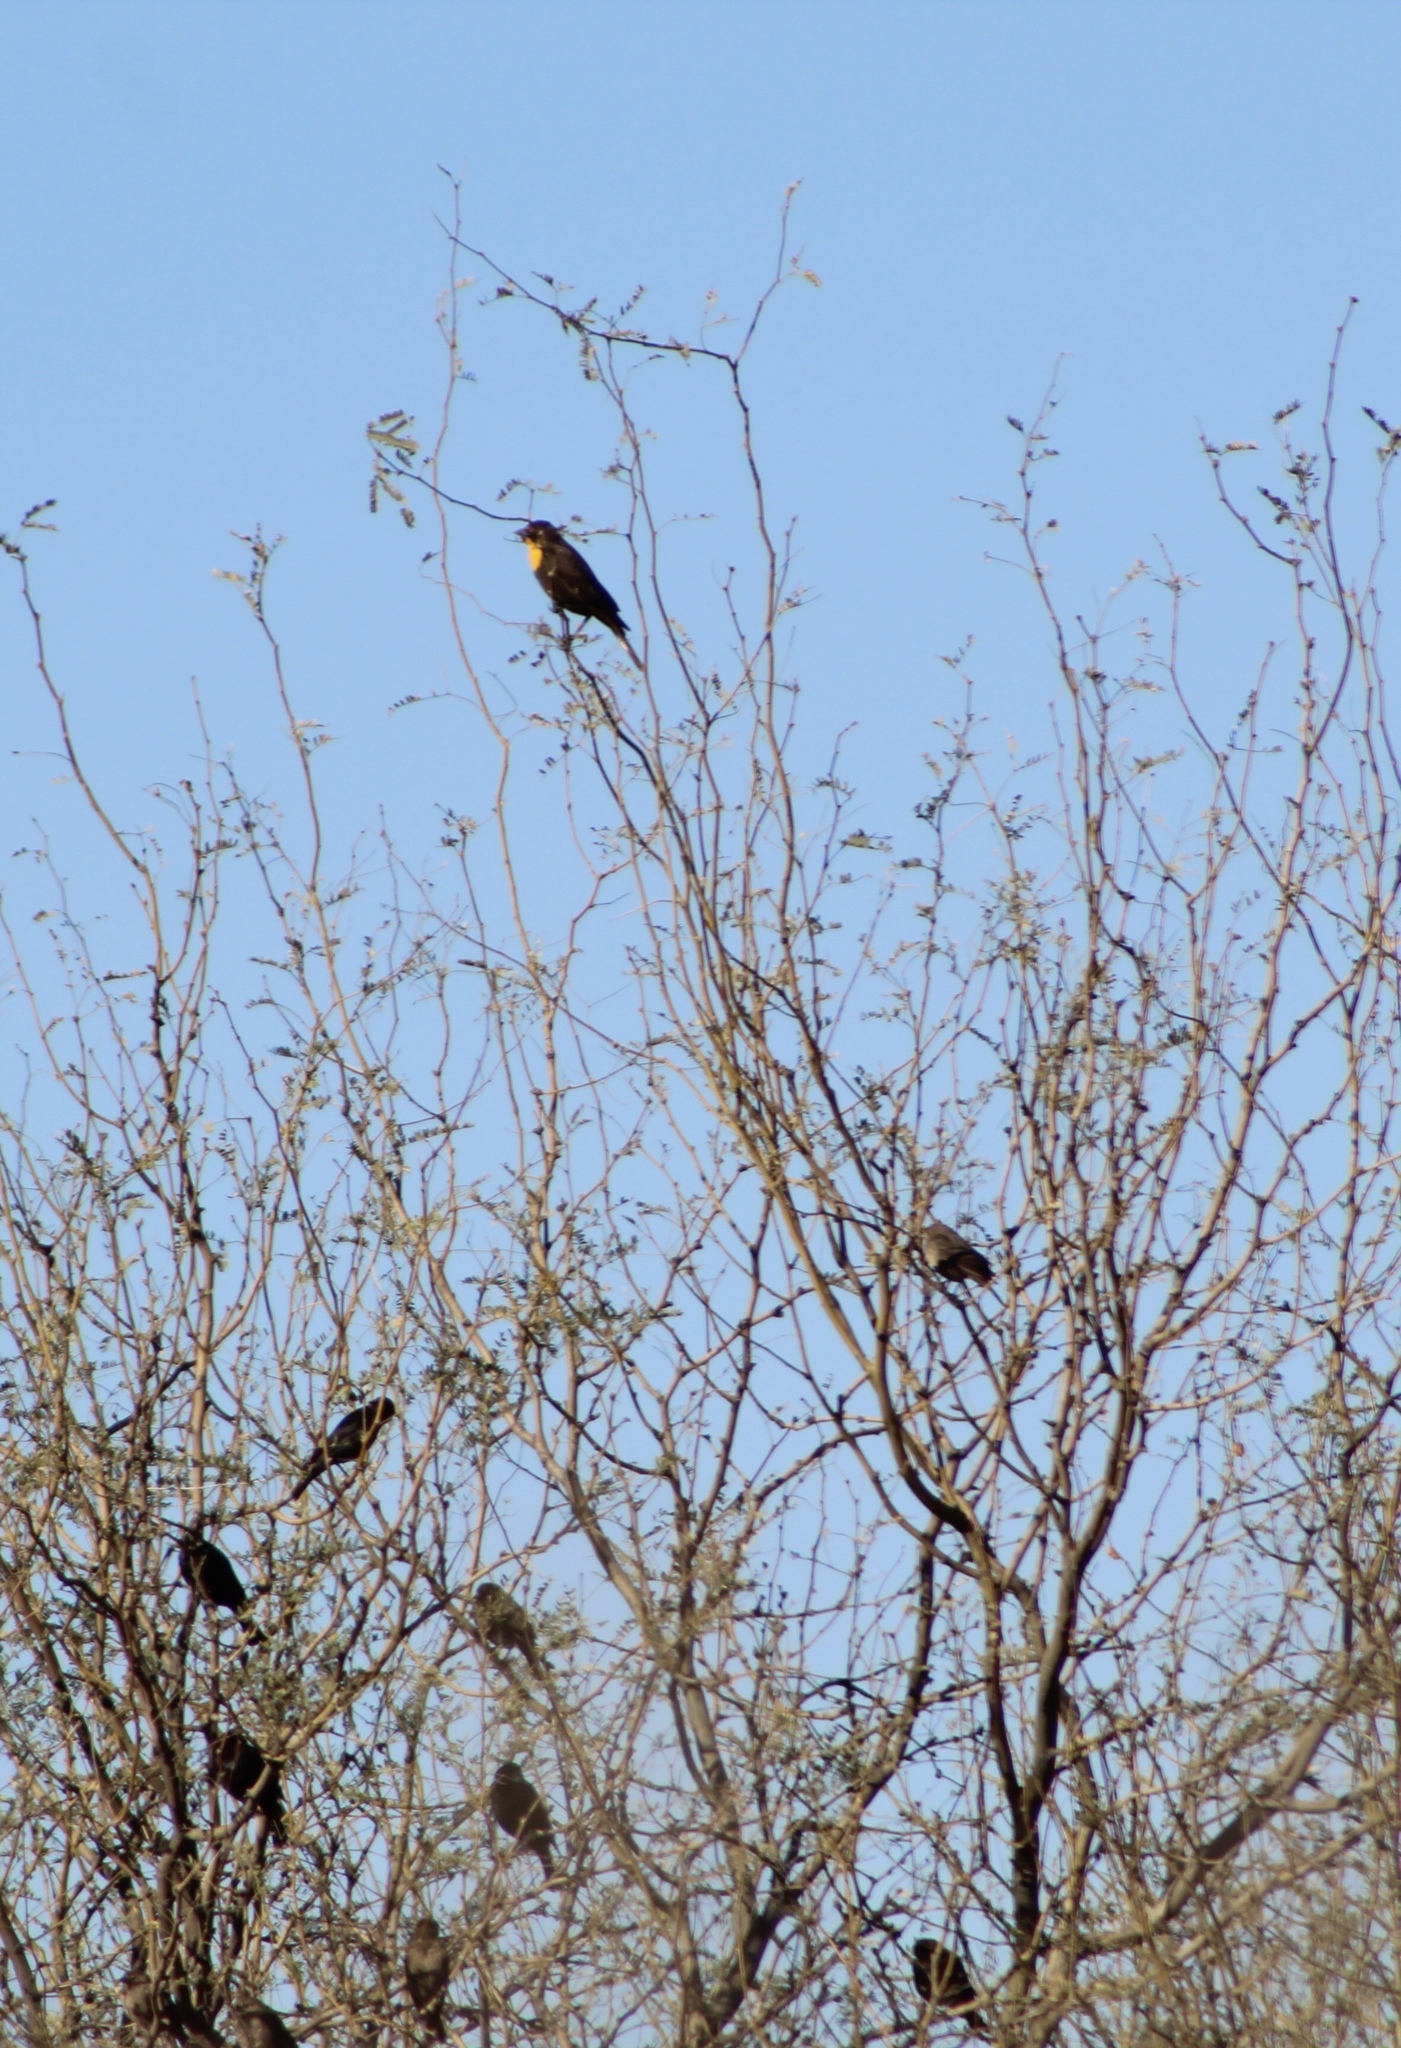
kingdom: Animalia
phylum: Chordata
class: Aves
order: Passeriformes
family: Icteridae
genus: Xanthocephalus
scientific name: Xanthocephalus xanthocephalus
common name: Yellow-headed blackbird
